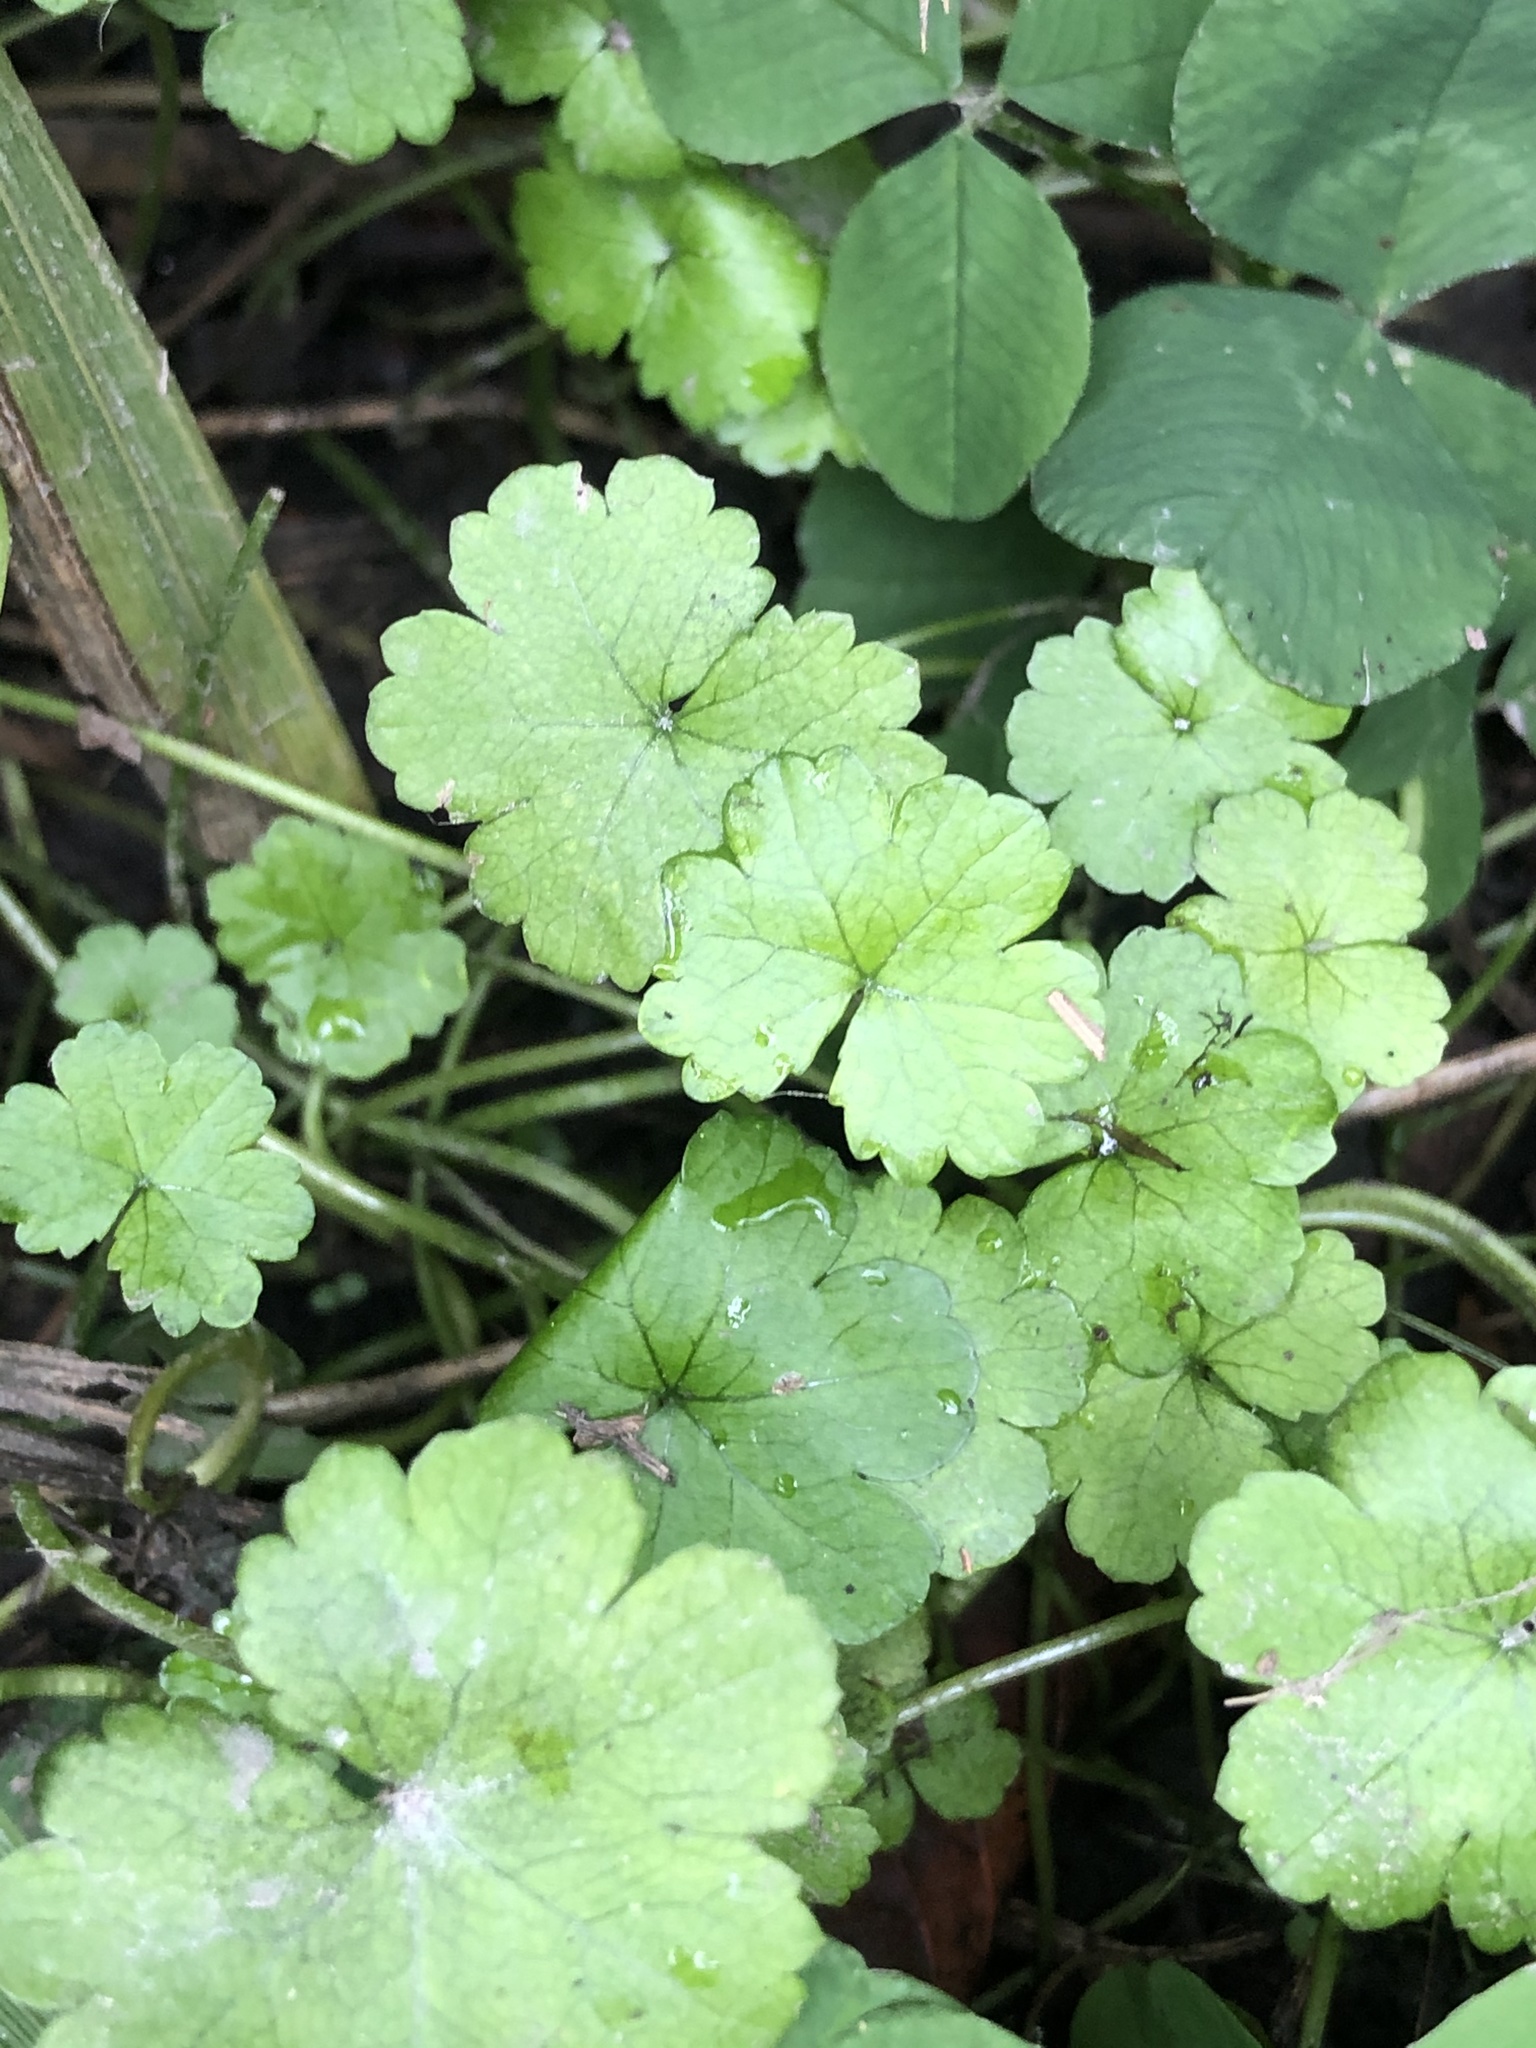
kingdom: Plantae
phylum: Tracheophyta
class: Magnoliopsida
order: Apiales
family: Araliaceae
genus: Hydrocotyle
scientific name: Hydrocotyle heteromeria
